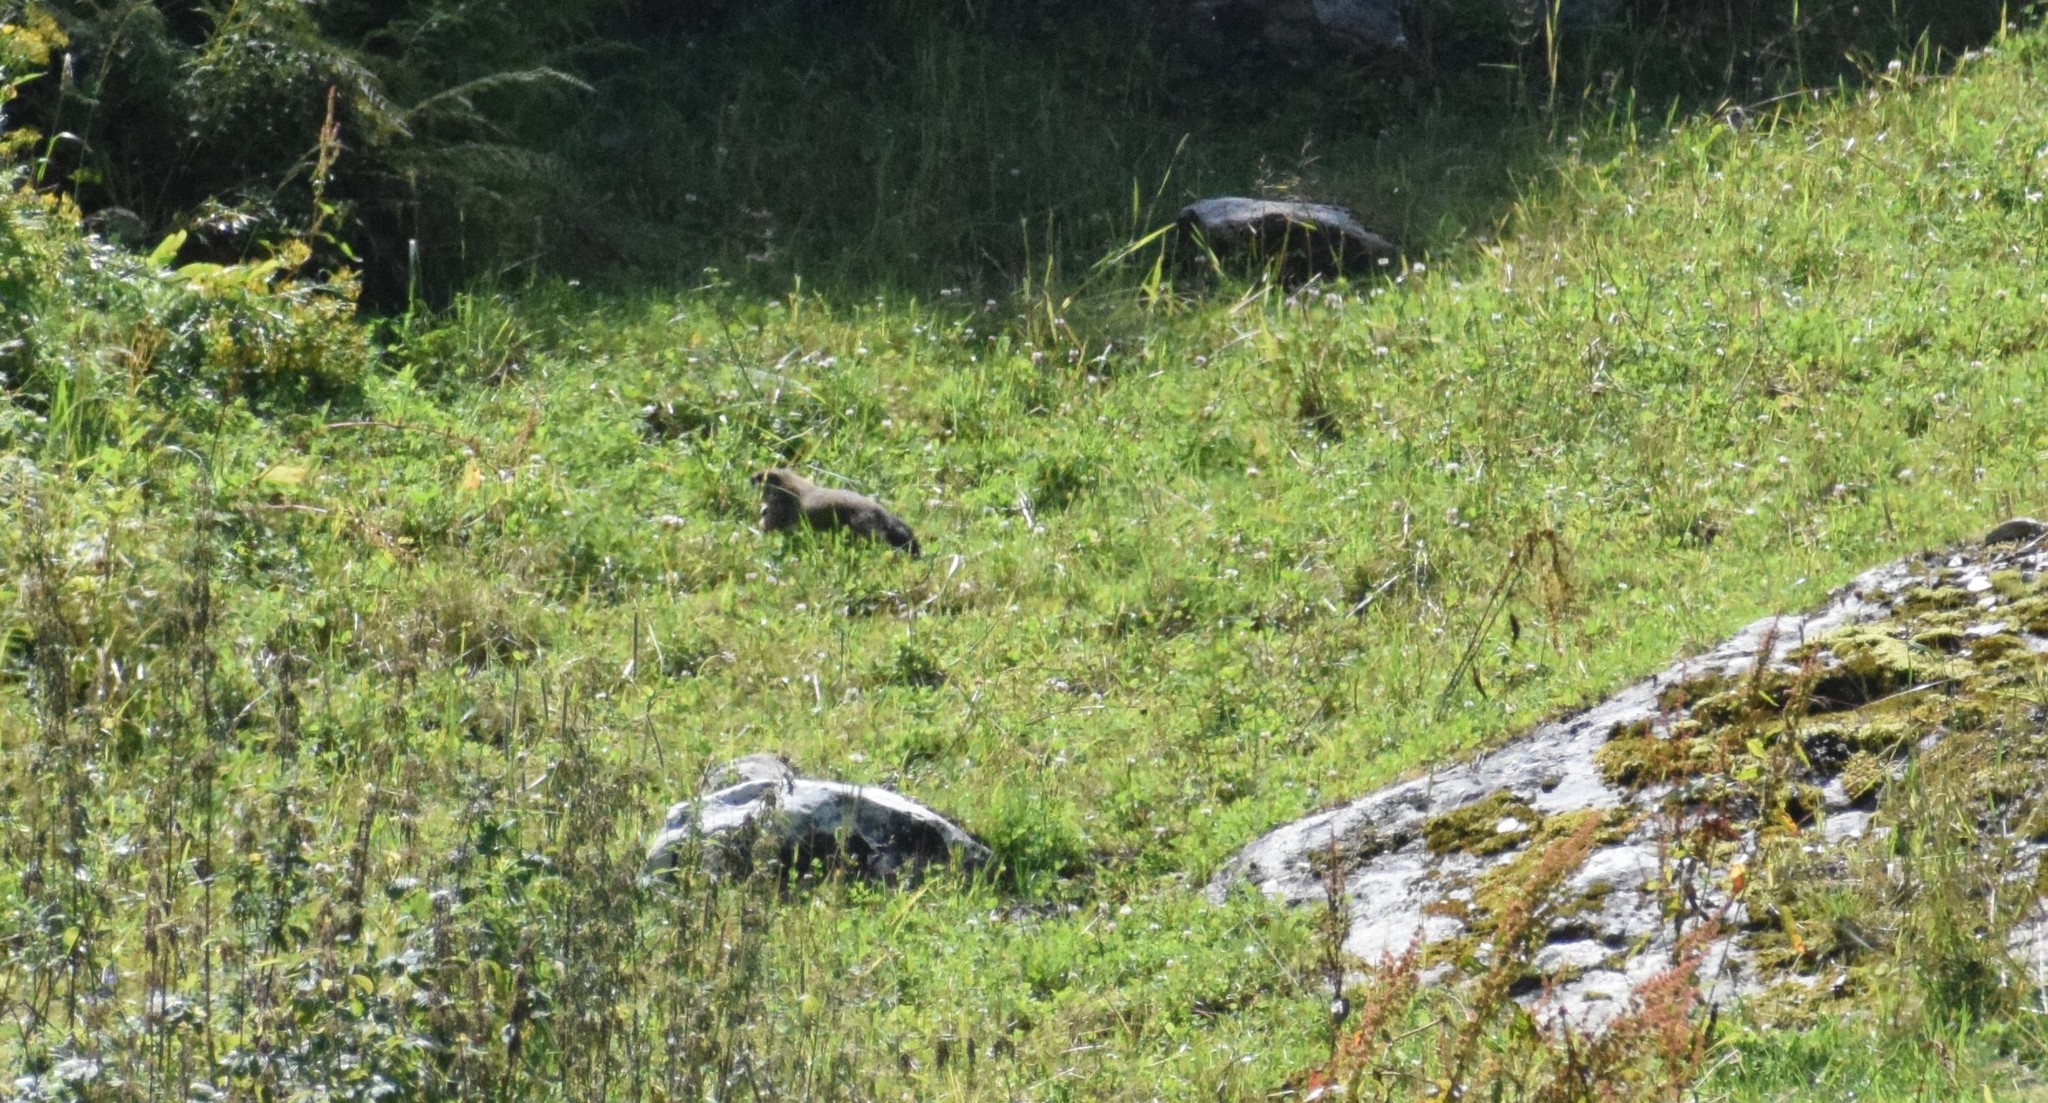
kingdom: Animalia
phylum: Chordata
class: Mammalia
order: Rodentia
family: Sciuridae
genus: Marmota
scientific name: Marmota marmota
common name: Alpine marmot
